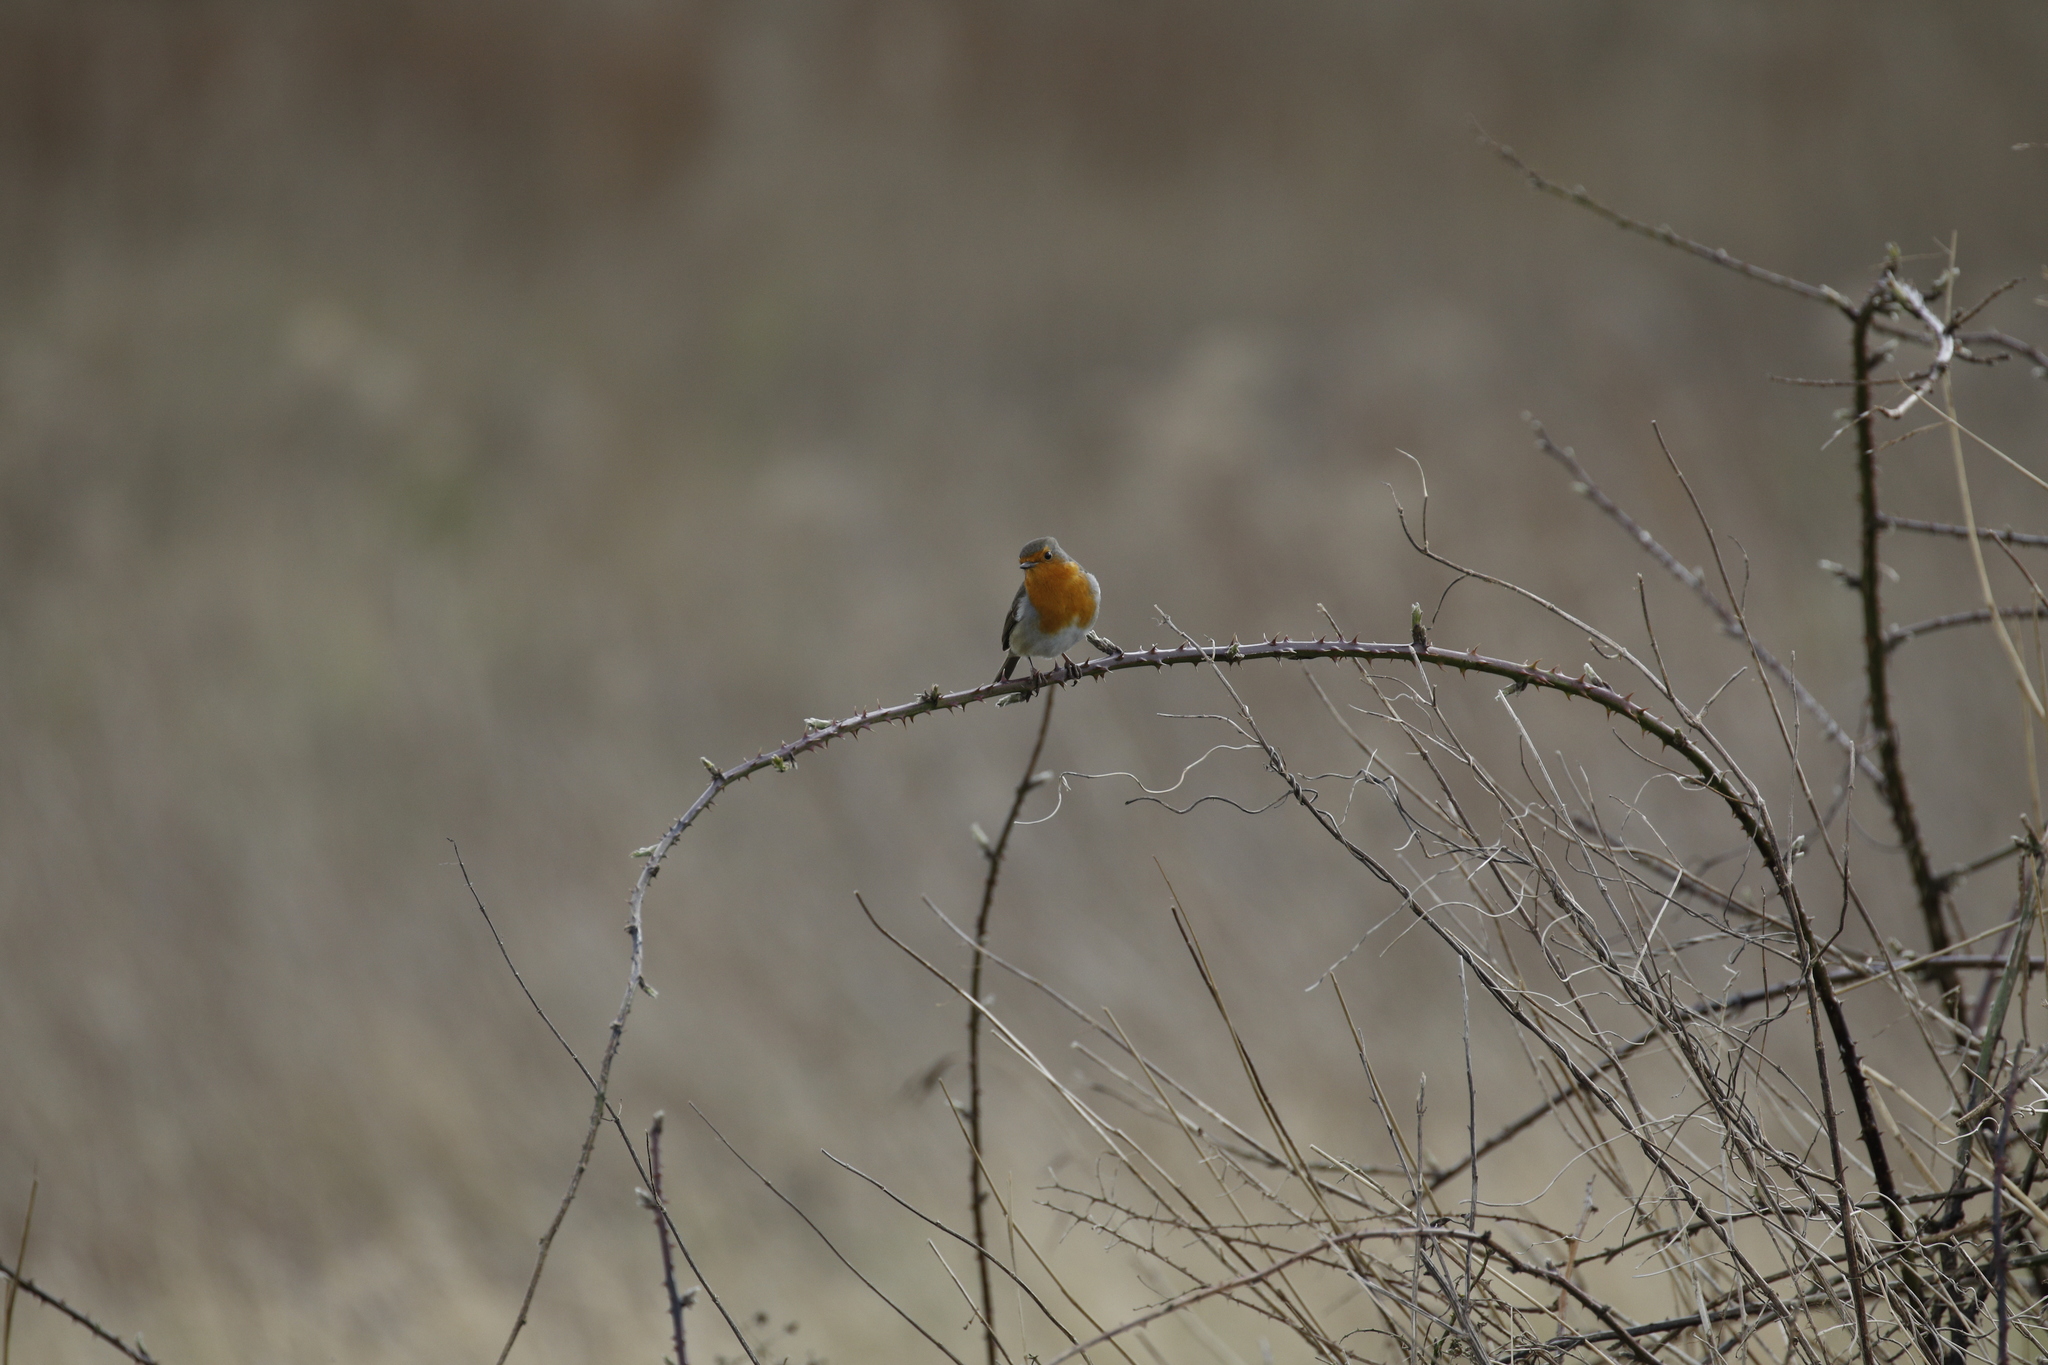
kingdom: Animalia
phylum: Chordata
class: Aves
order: Passeriformes
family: Muscicapidae
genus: Erithacus
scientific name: Erithacus rubecula
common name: European robin
